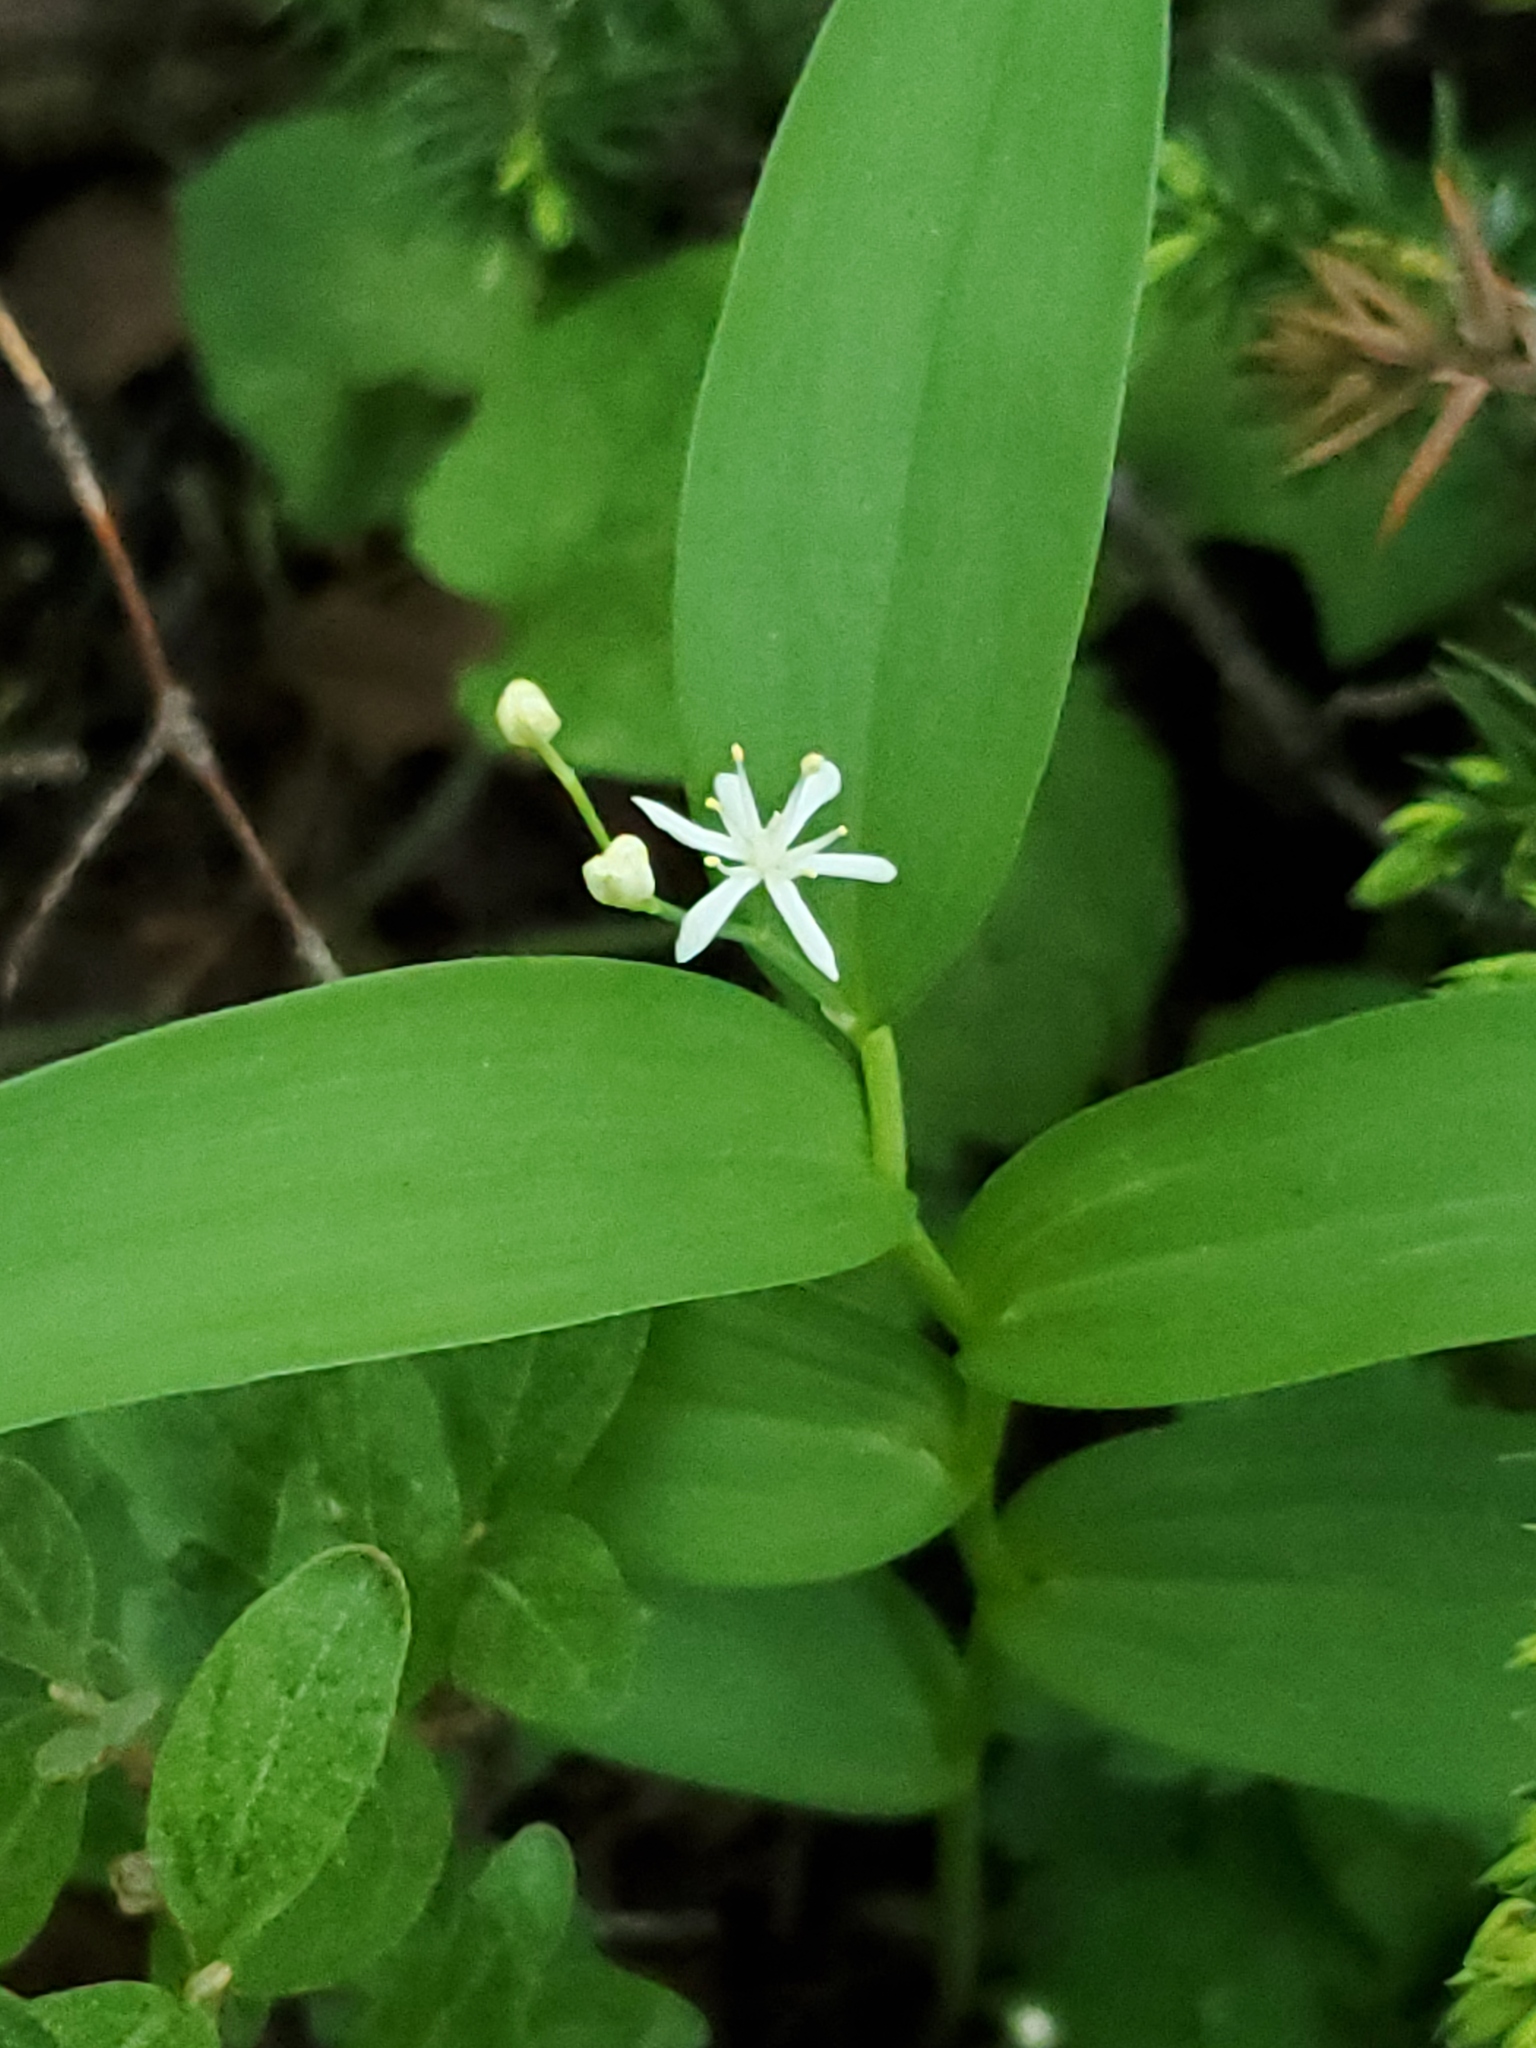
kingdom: Plantae
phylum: Tracheophyta
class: Liliopsida
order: Asparagales
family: Asparagaceae
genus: Maianthemum
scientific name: Maianthemum stellatum
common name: Little false solomon's seal
